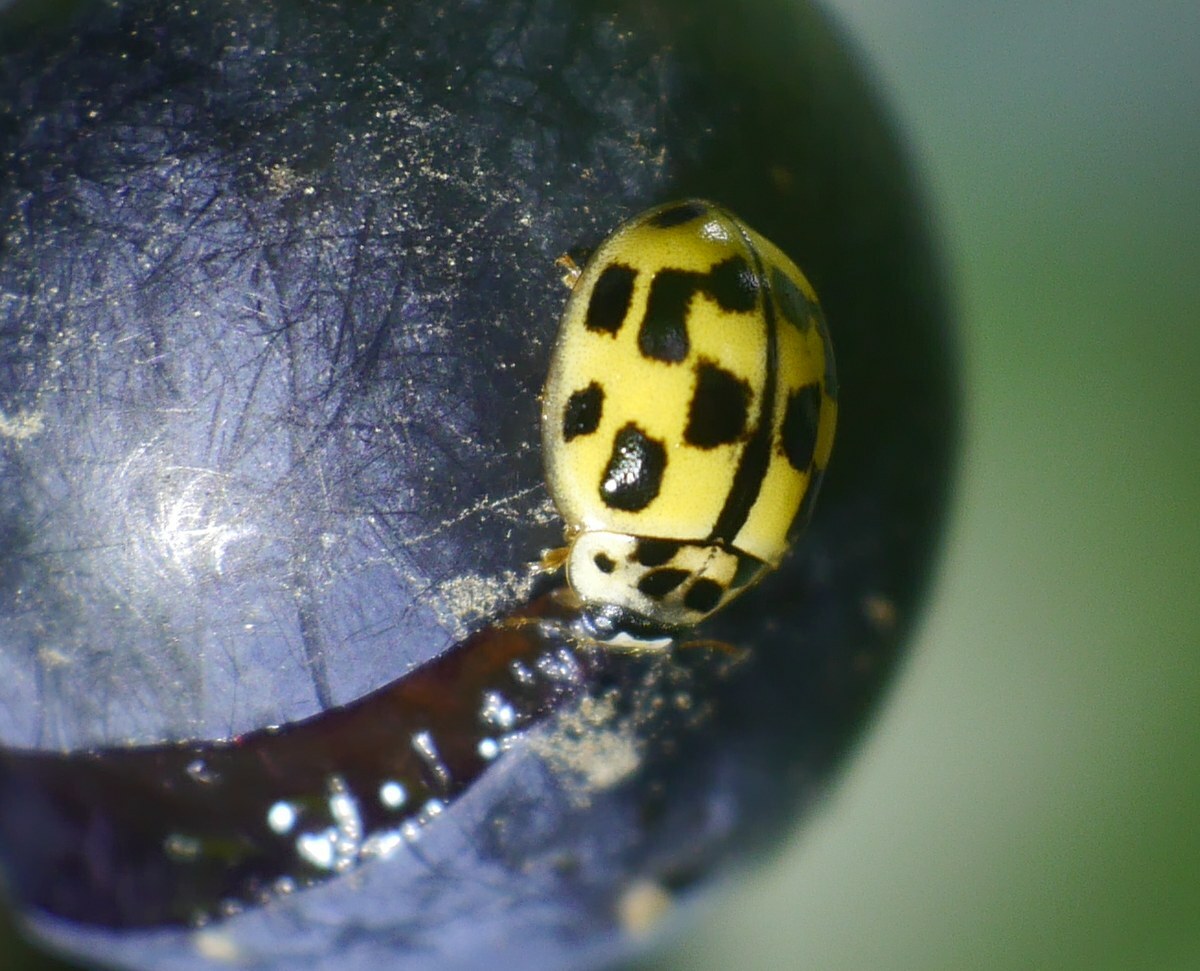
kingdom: Animalia
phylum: Arthropoda
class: Insecta
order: Coleoptera
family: Coccinellidae
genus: Propylaea
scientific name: Propylaea quatuordecimpunctata
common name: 14-spotted ladybird beetle
